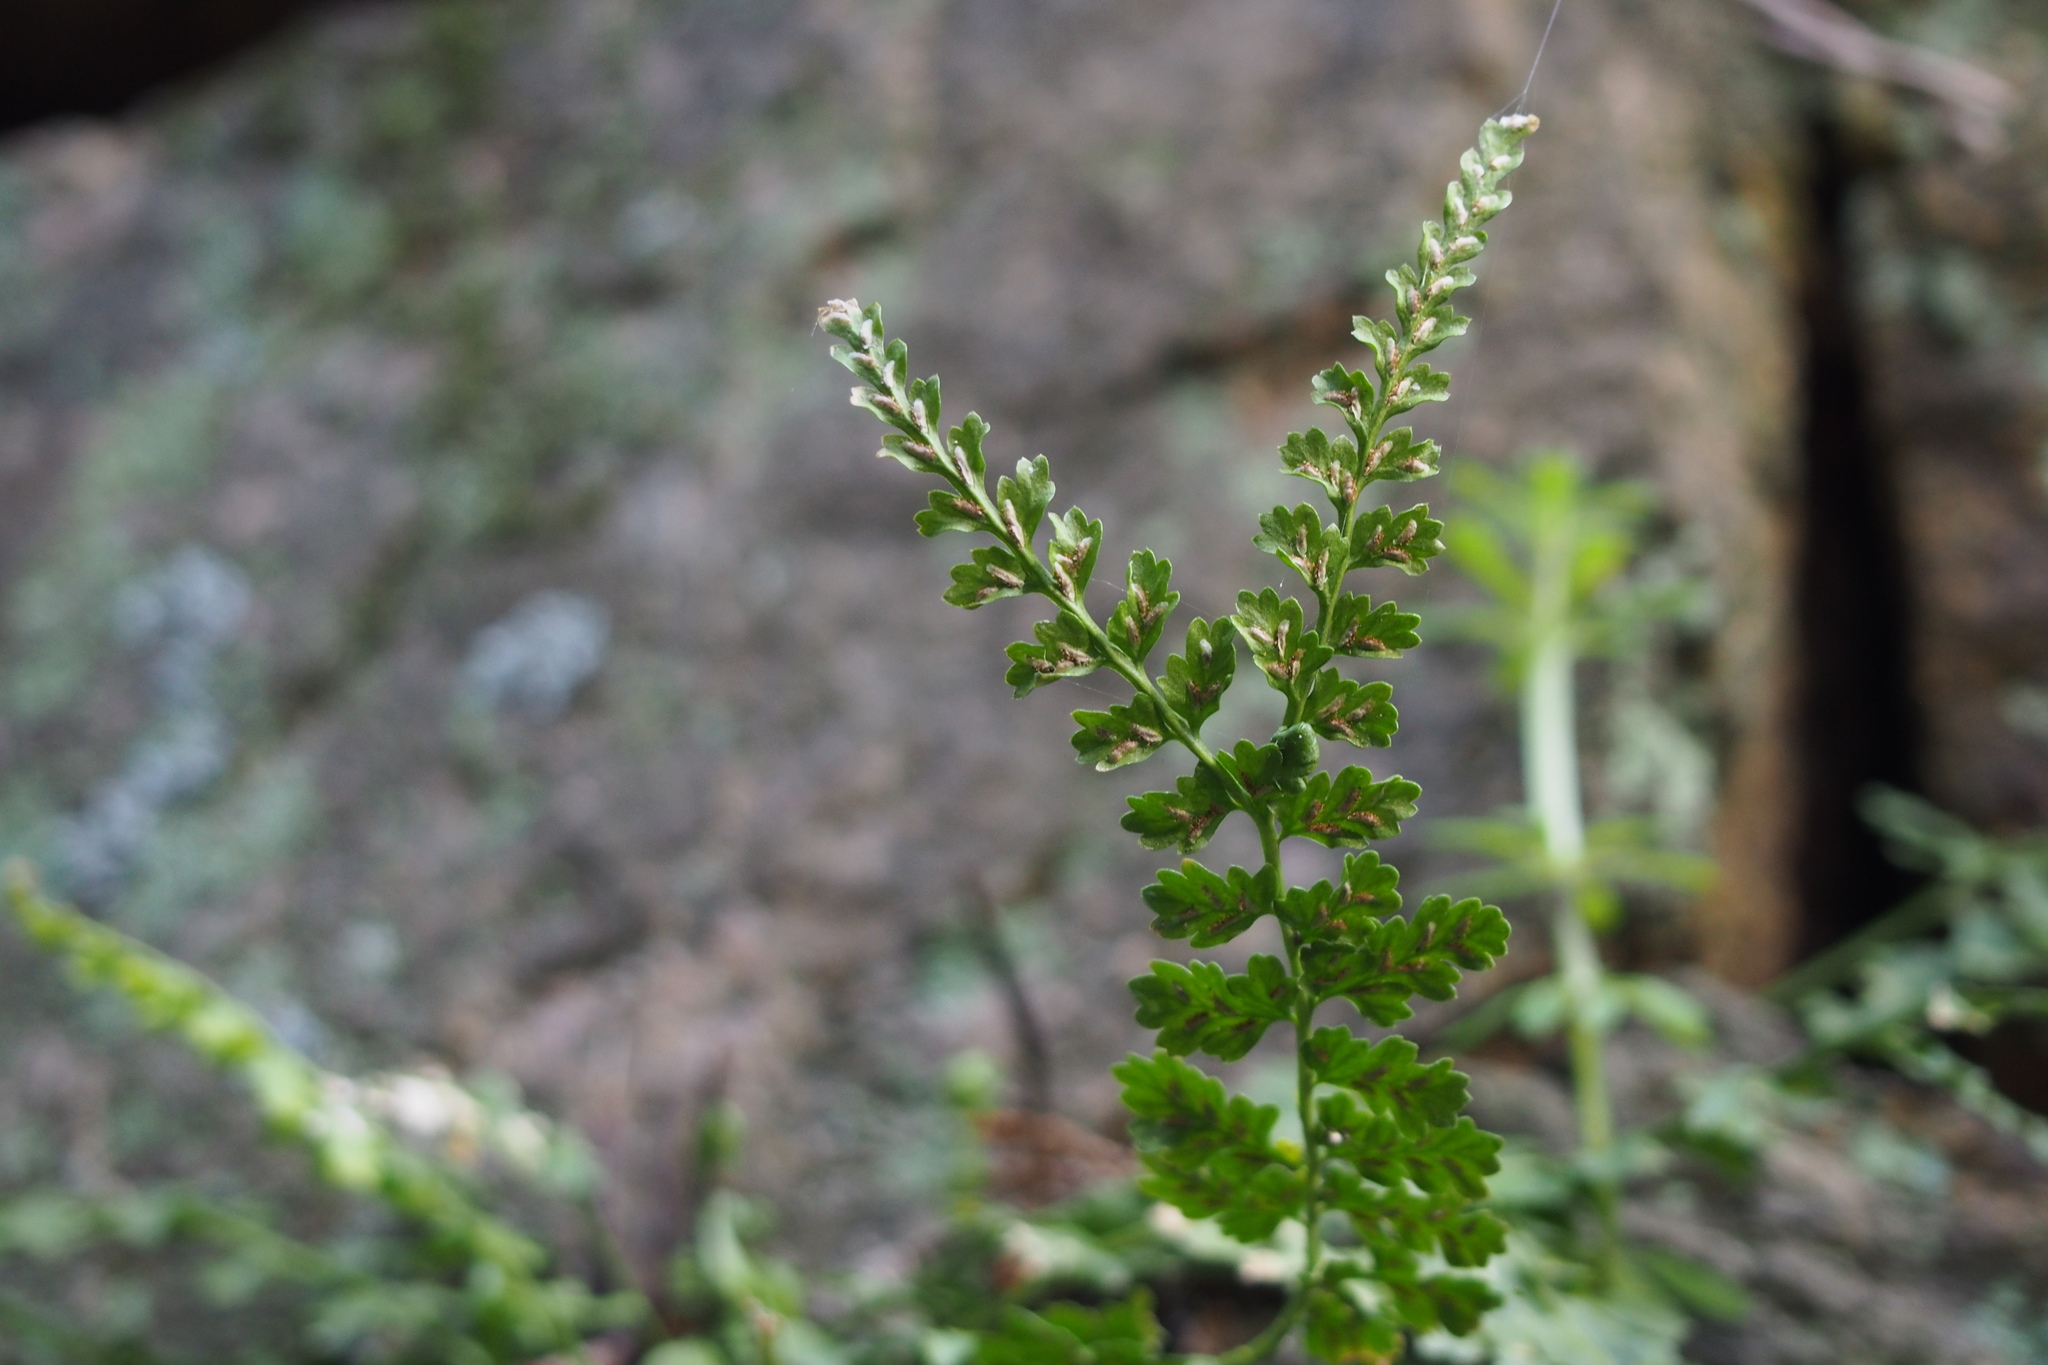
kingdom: Plantae
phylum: Tracheophyta
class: Polypodiopsida
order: Polypodiales
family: Aspleniaceae
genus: Asplenium
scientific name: Asplenium incisum
